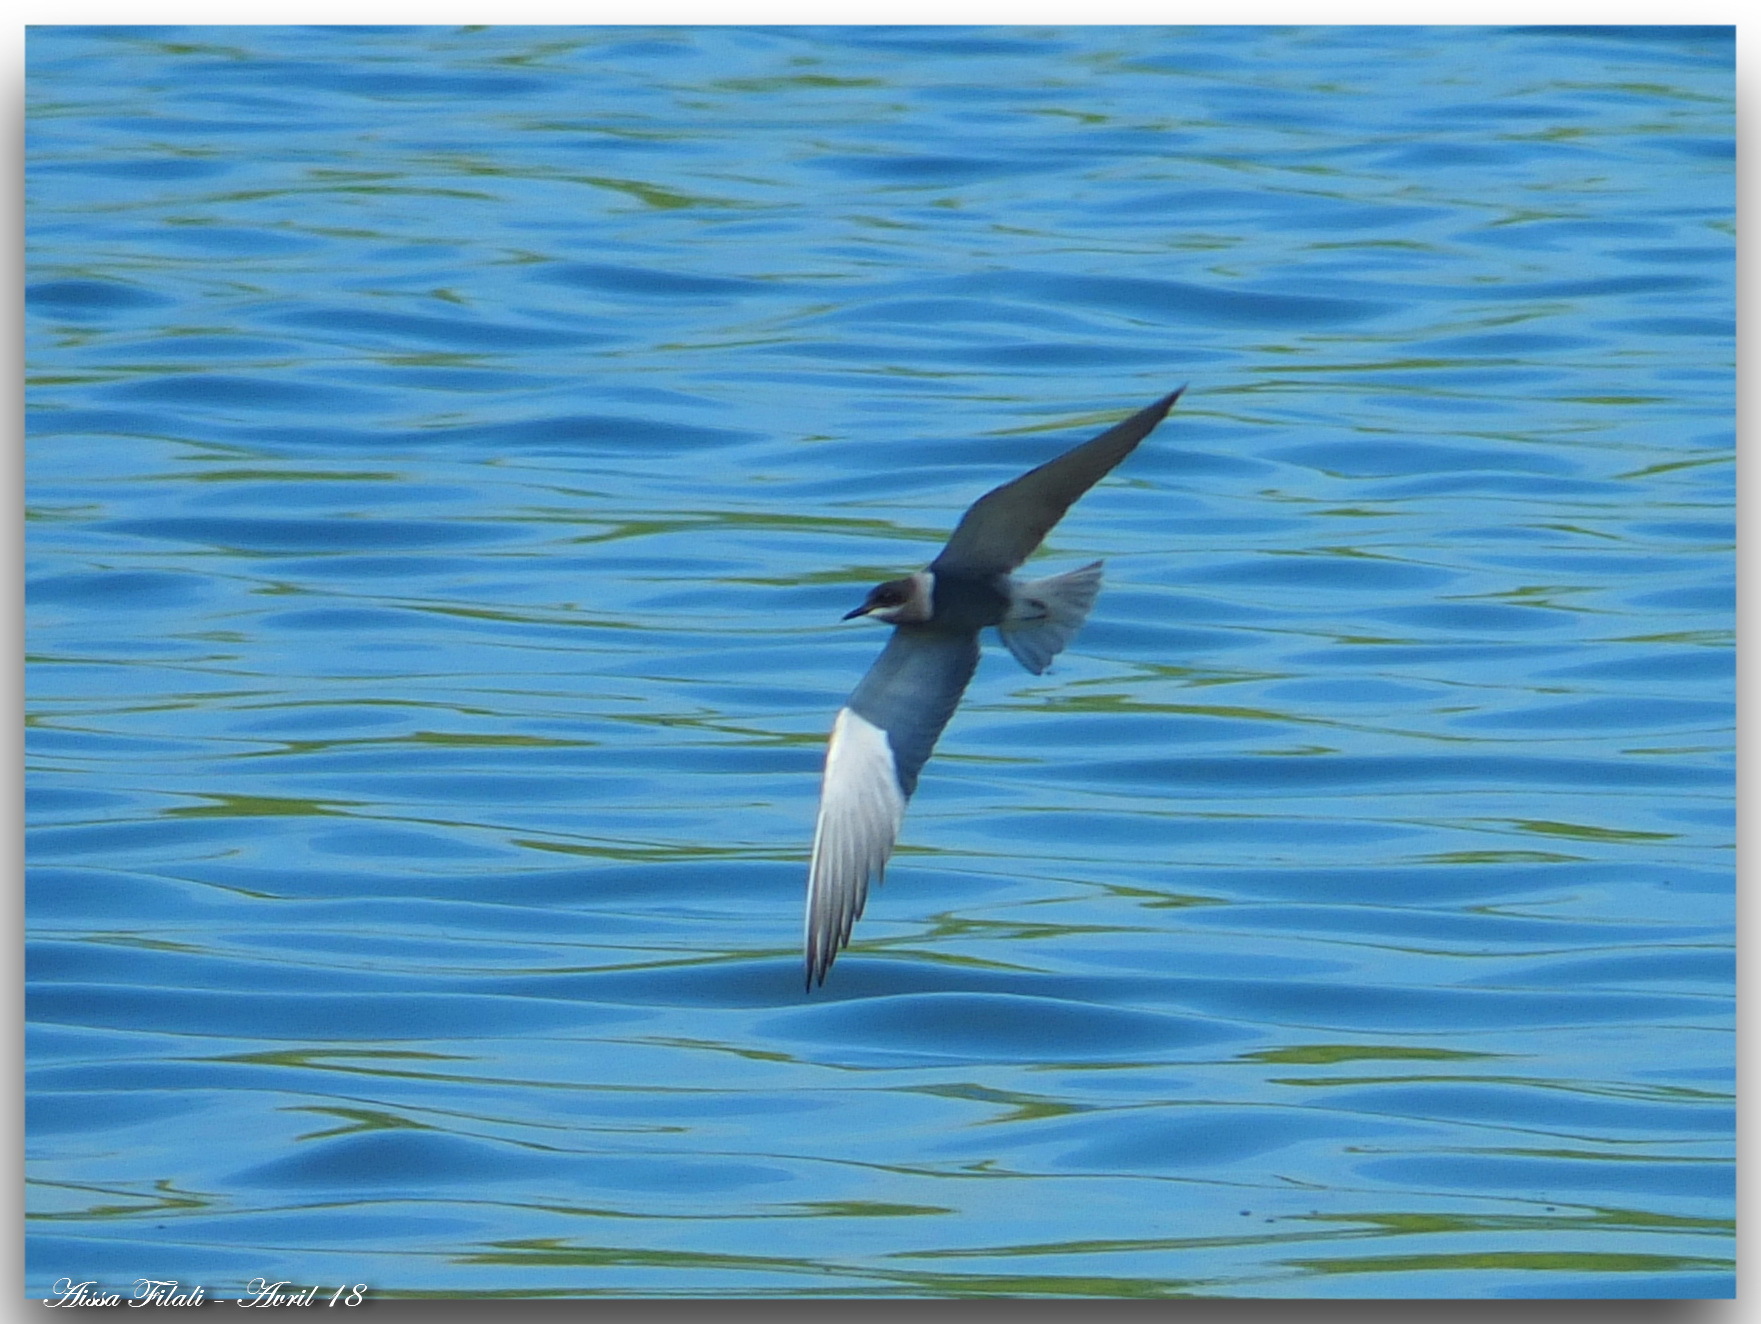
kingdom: Animalia
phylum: Chordata
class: Aves
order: Charadriiformes
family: Laridae
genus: Chlidonias
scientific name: Chlidonias niger
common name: Black tern
